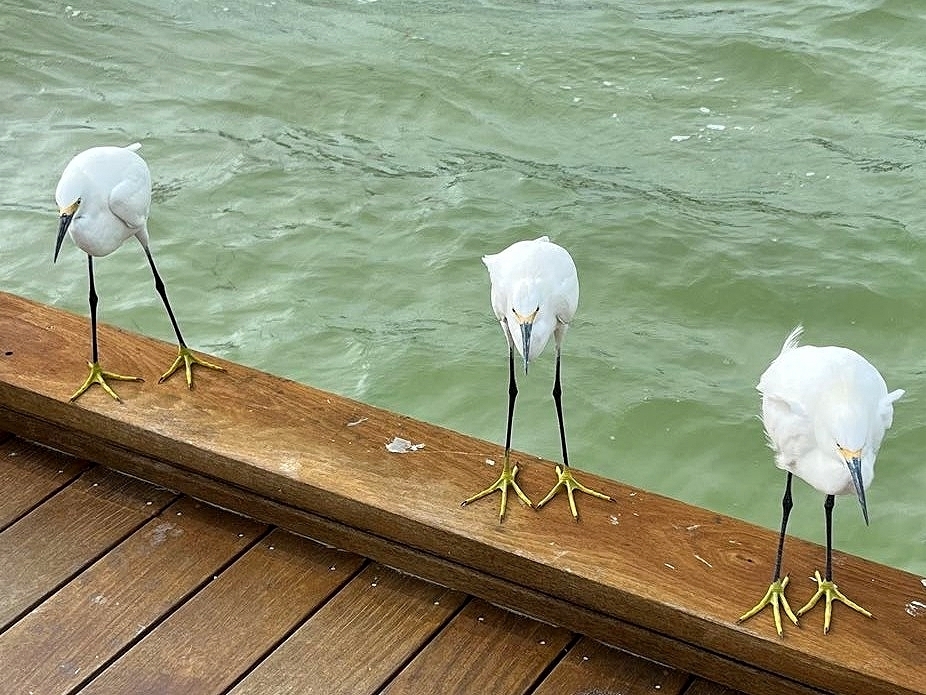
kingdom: Animalia
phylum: Chordata
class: Aves
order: Pelecaniformes
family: Ardeidae
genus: Egretta
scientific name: Egretta thula
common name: Snowy egret
